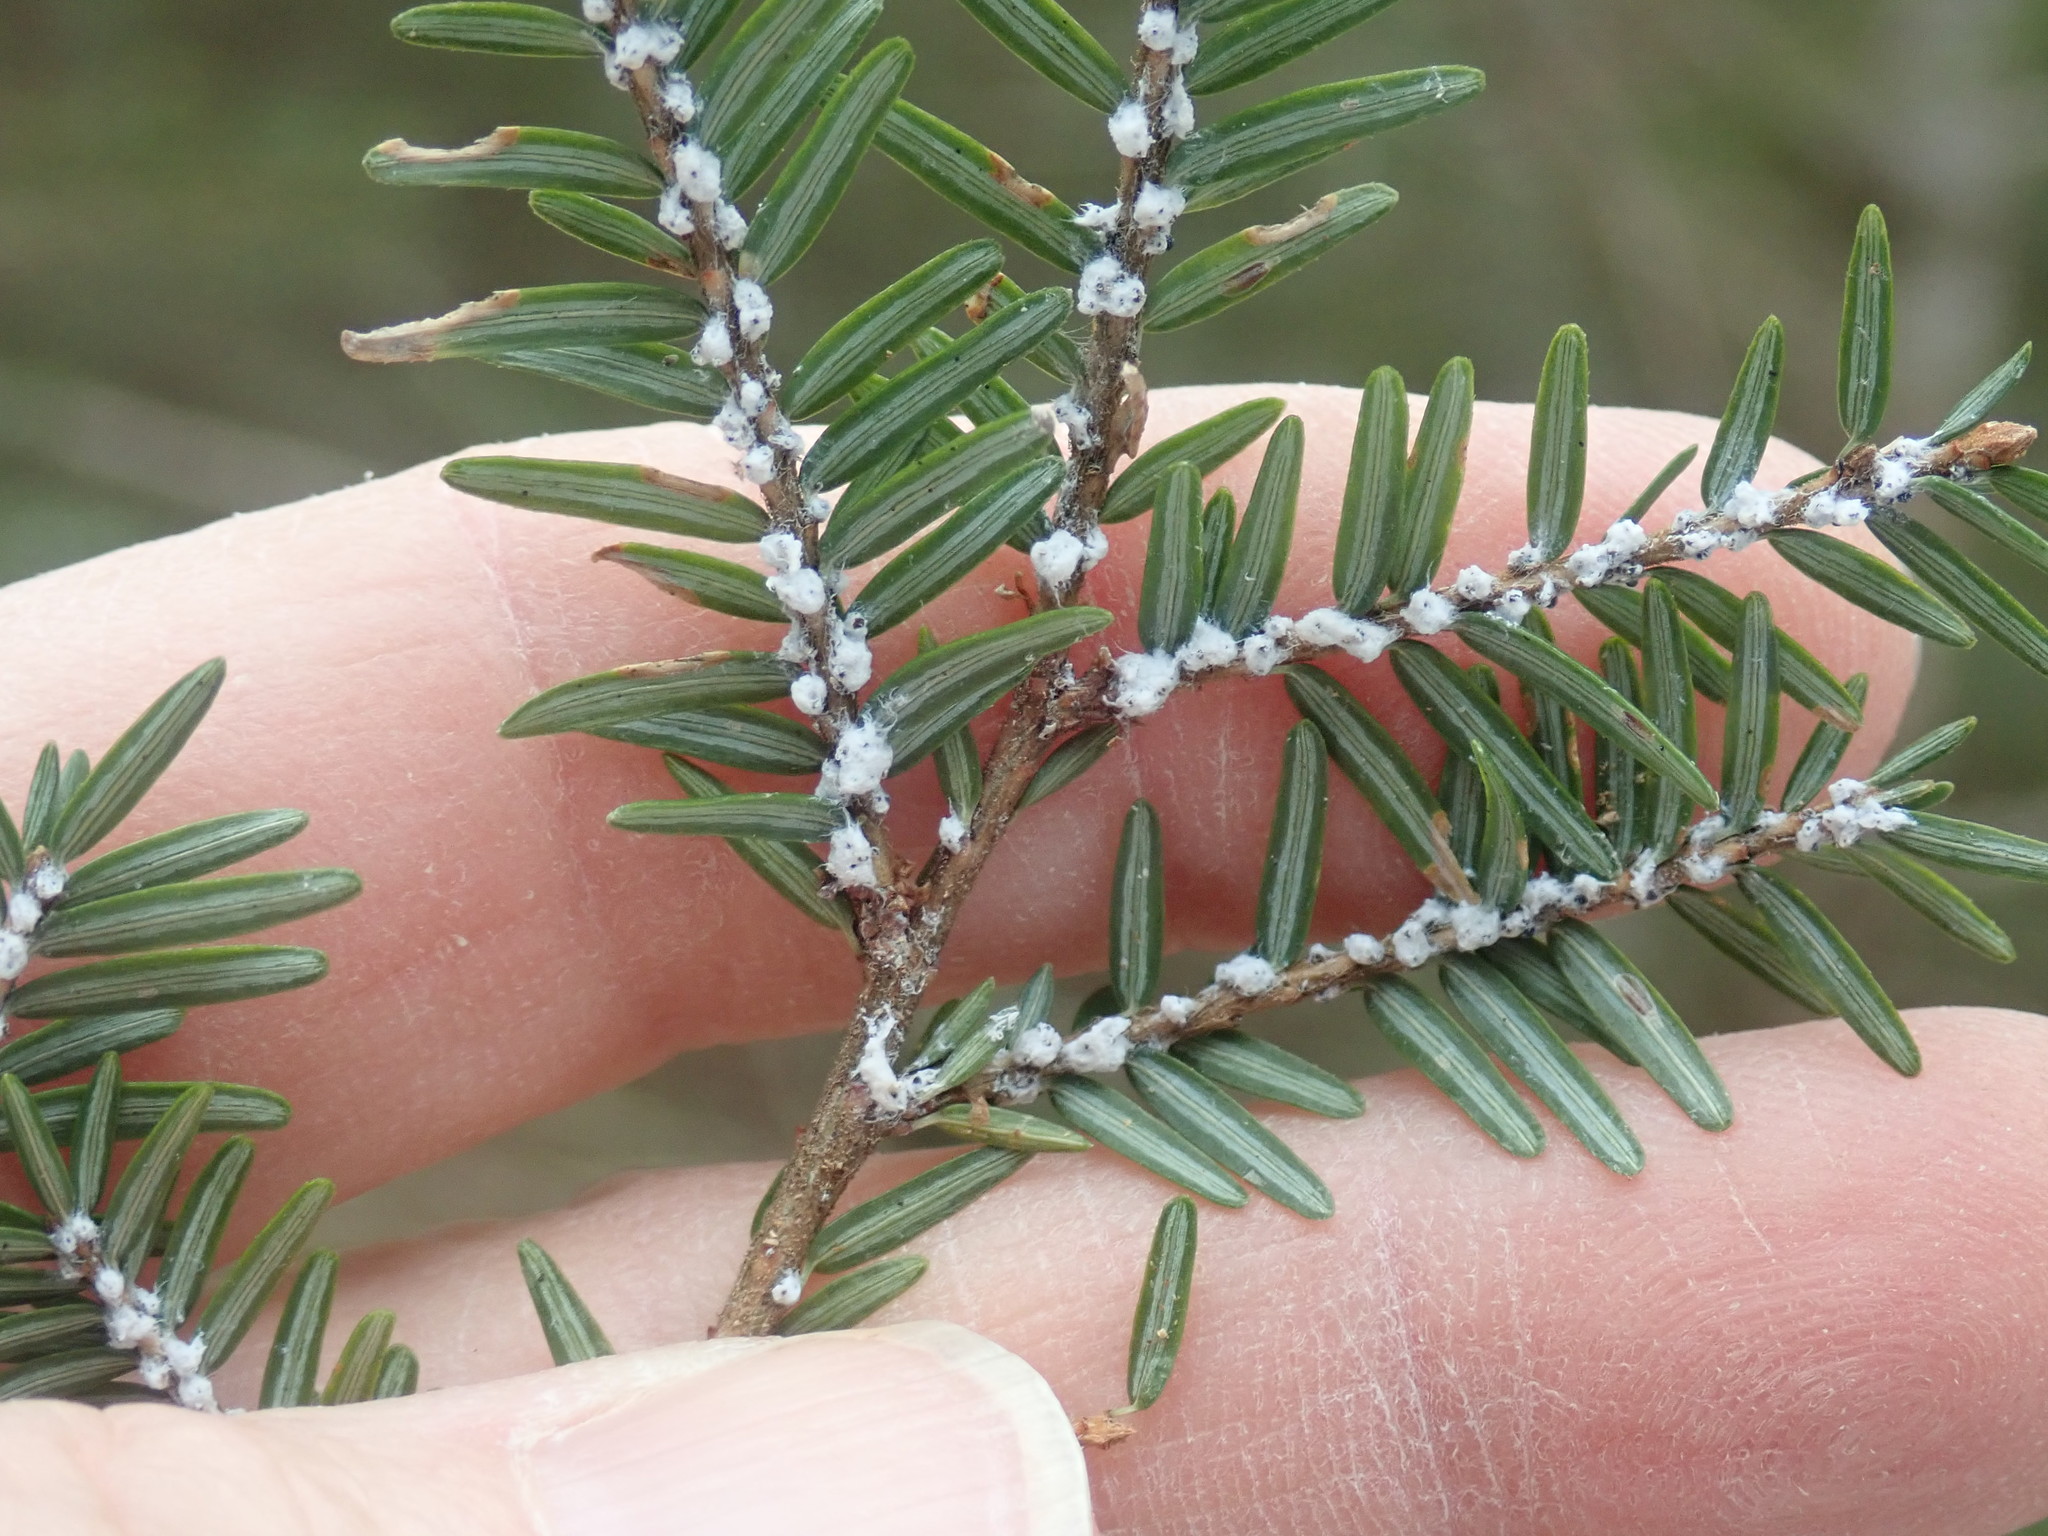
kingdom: Animalia
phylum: Arthropoda
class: Insecta
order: Hemiptera
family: Adelgidae
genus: Adelges
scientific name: Adelges tsugae
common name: Hemlock woolly adelgid
